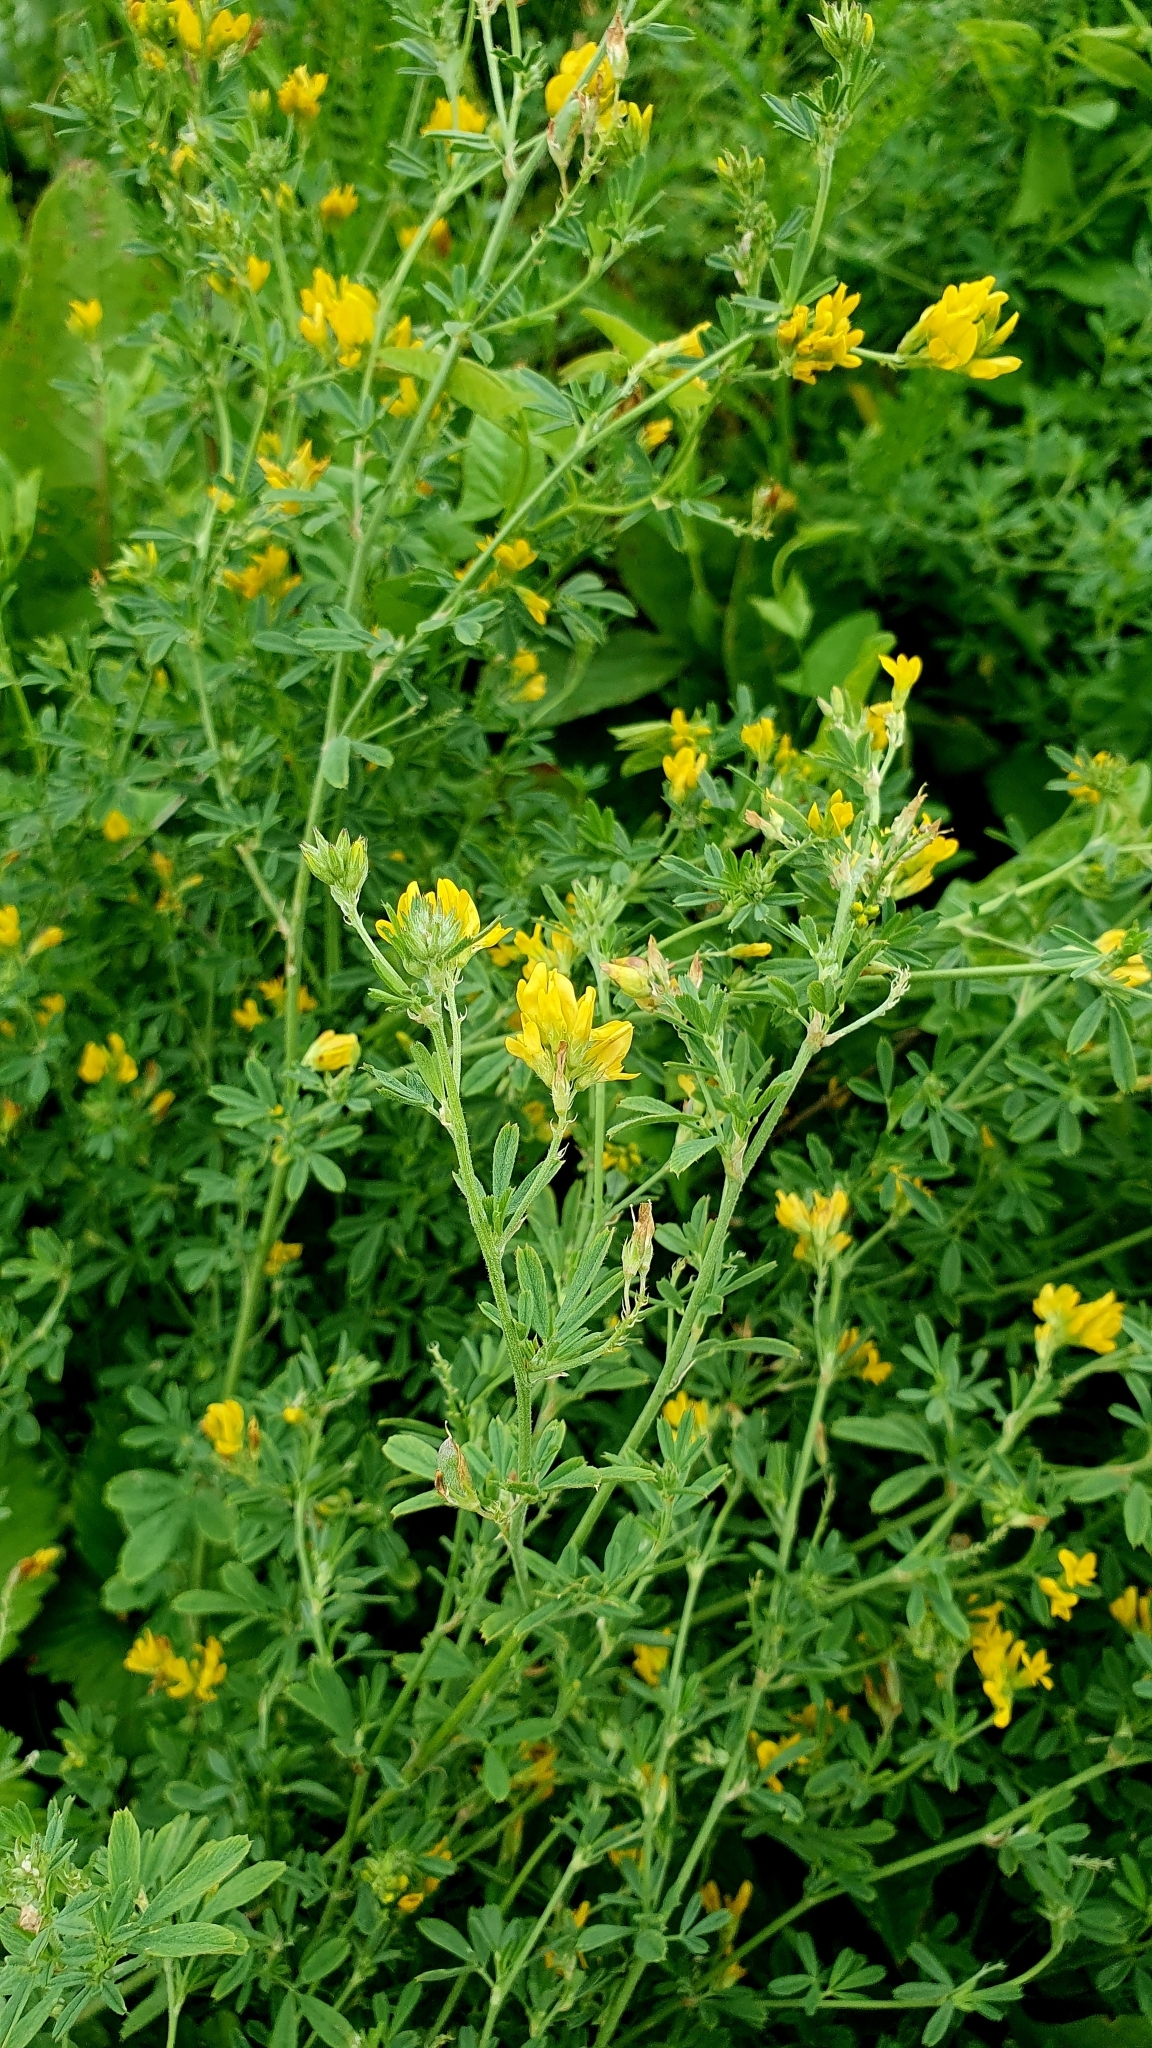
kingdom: Plantae
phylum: Tracheophyta
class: Magnoliopsida
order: Fabales
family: Fabaceae
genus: Medicago
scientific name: Medicago falcata
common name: Sickle medick
